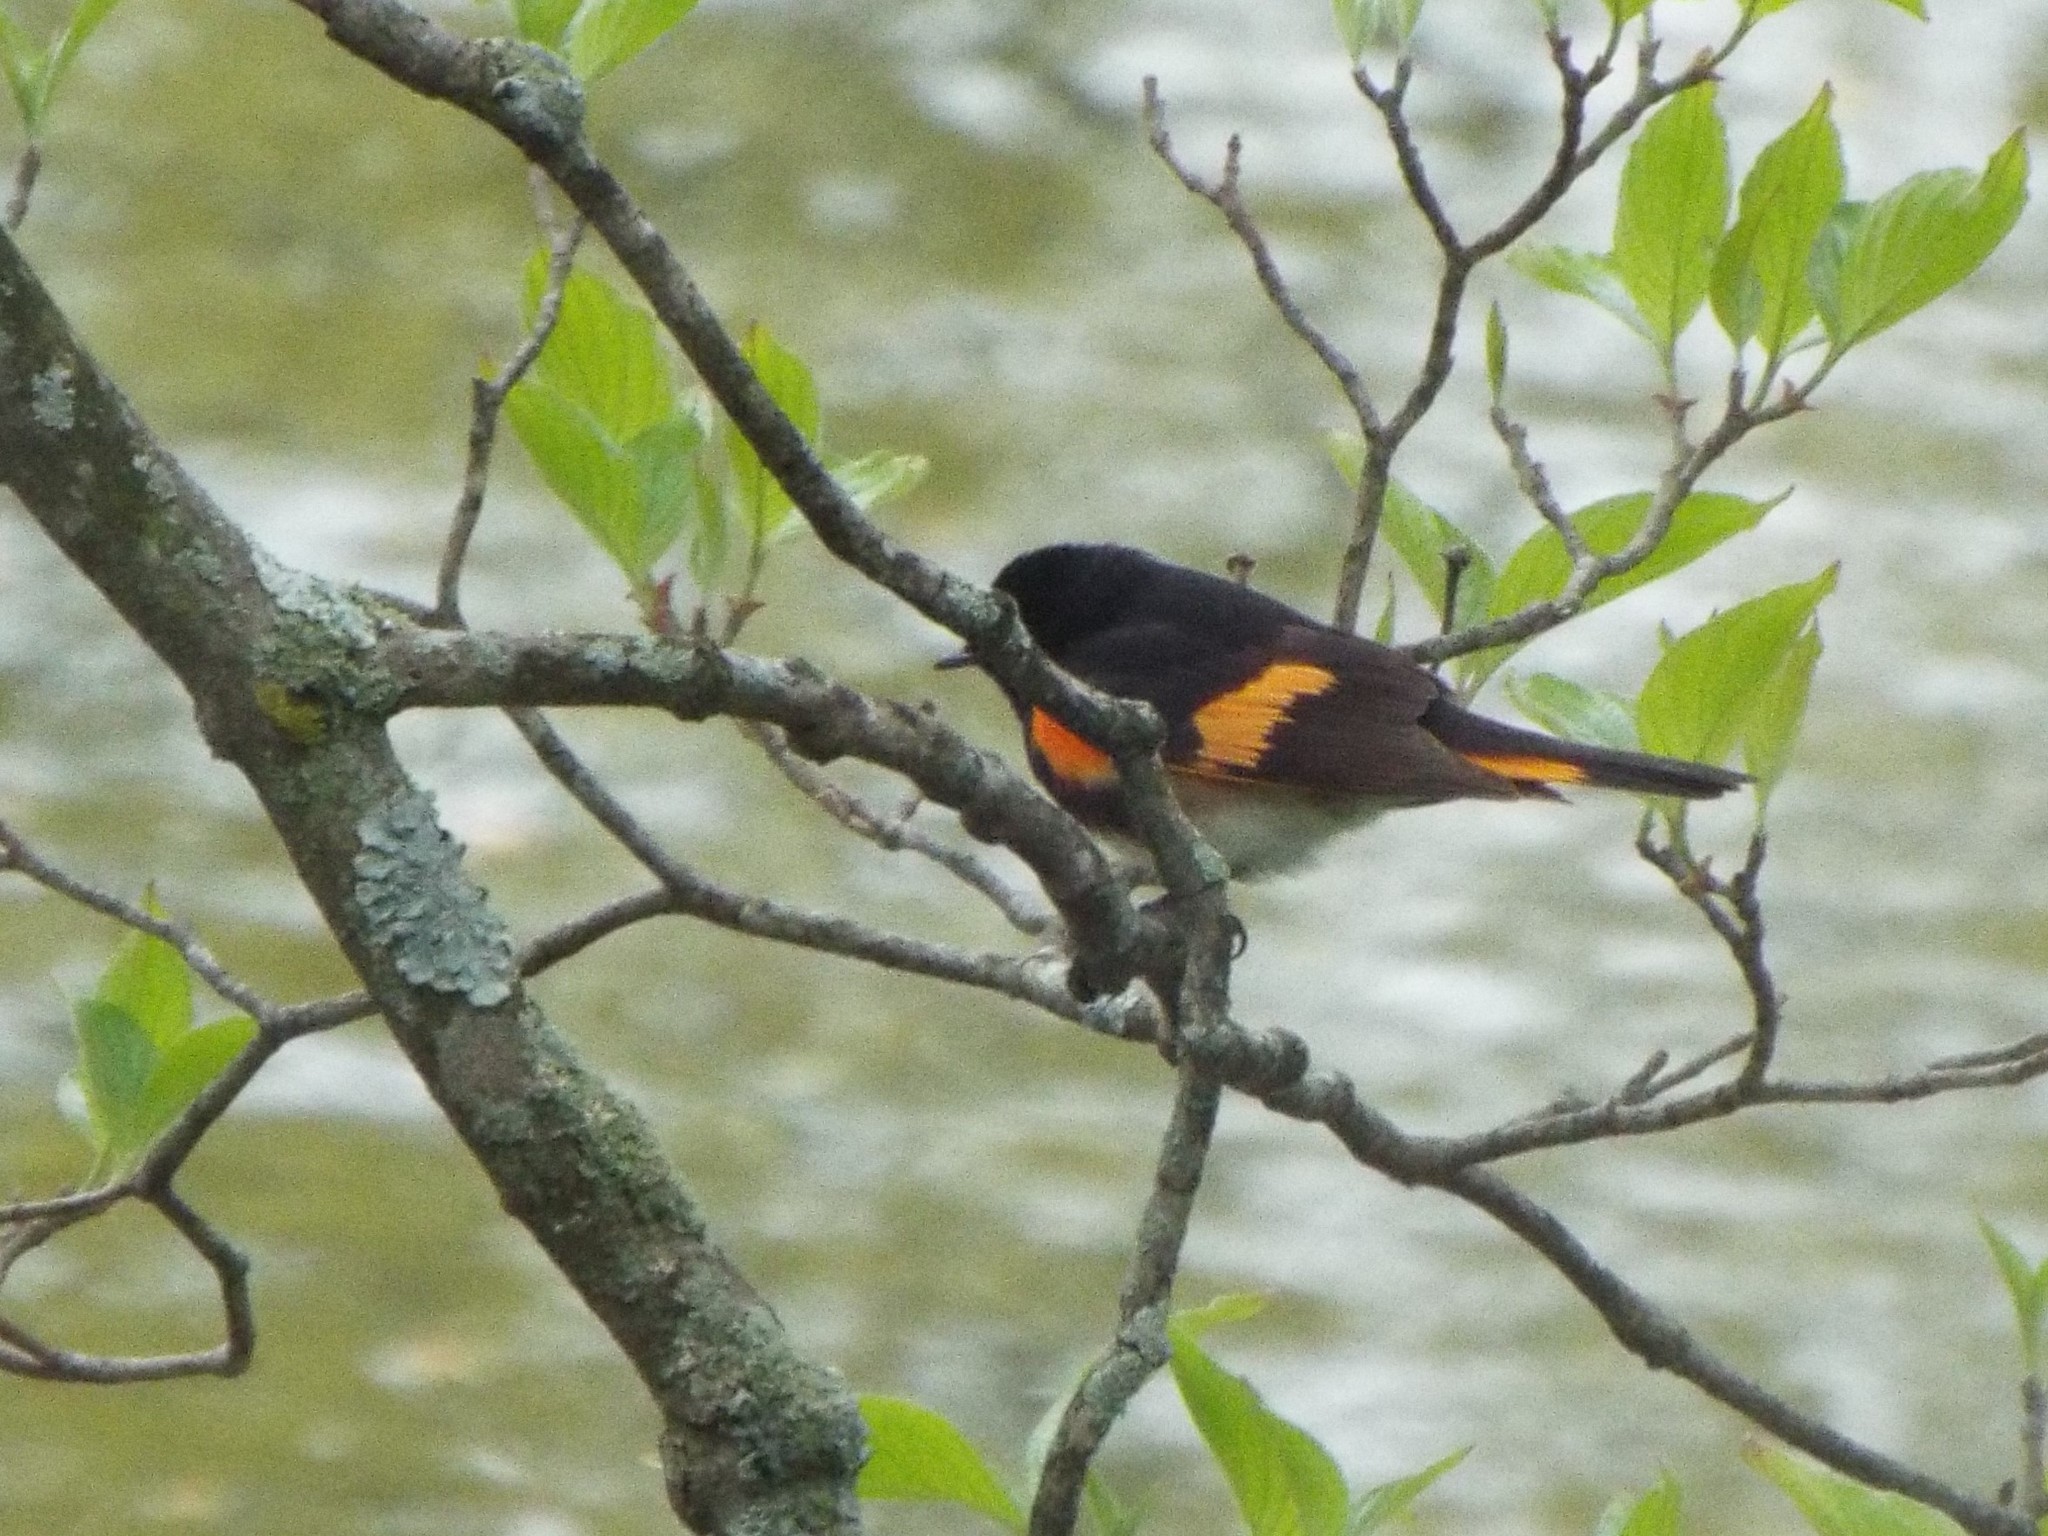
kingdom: Animalia
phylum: Chordata
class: Aves
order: Passeriformes
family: Parulidae
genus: Setophaga
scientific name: Setophaga ruticilla
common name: American redstart
